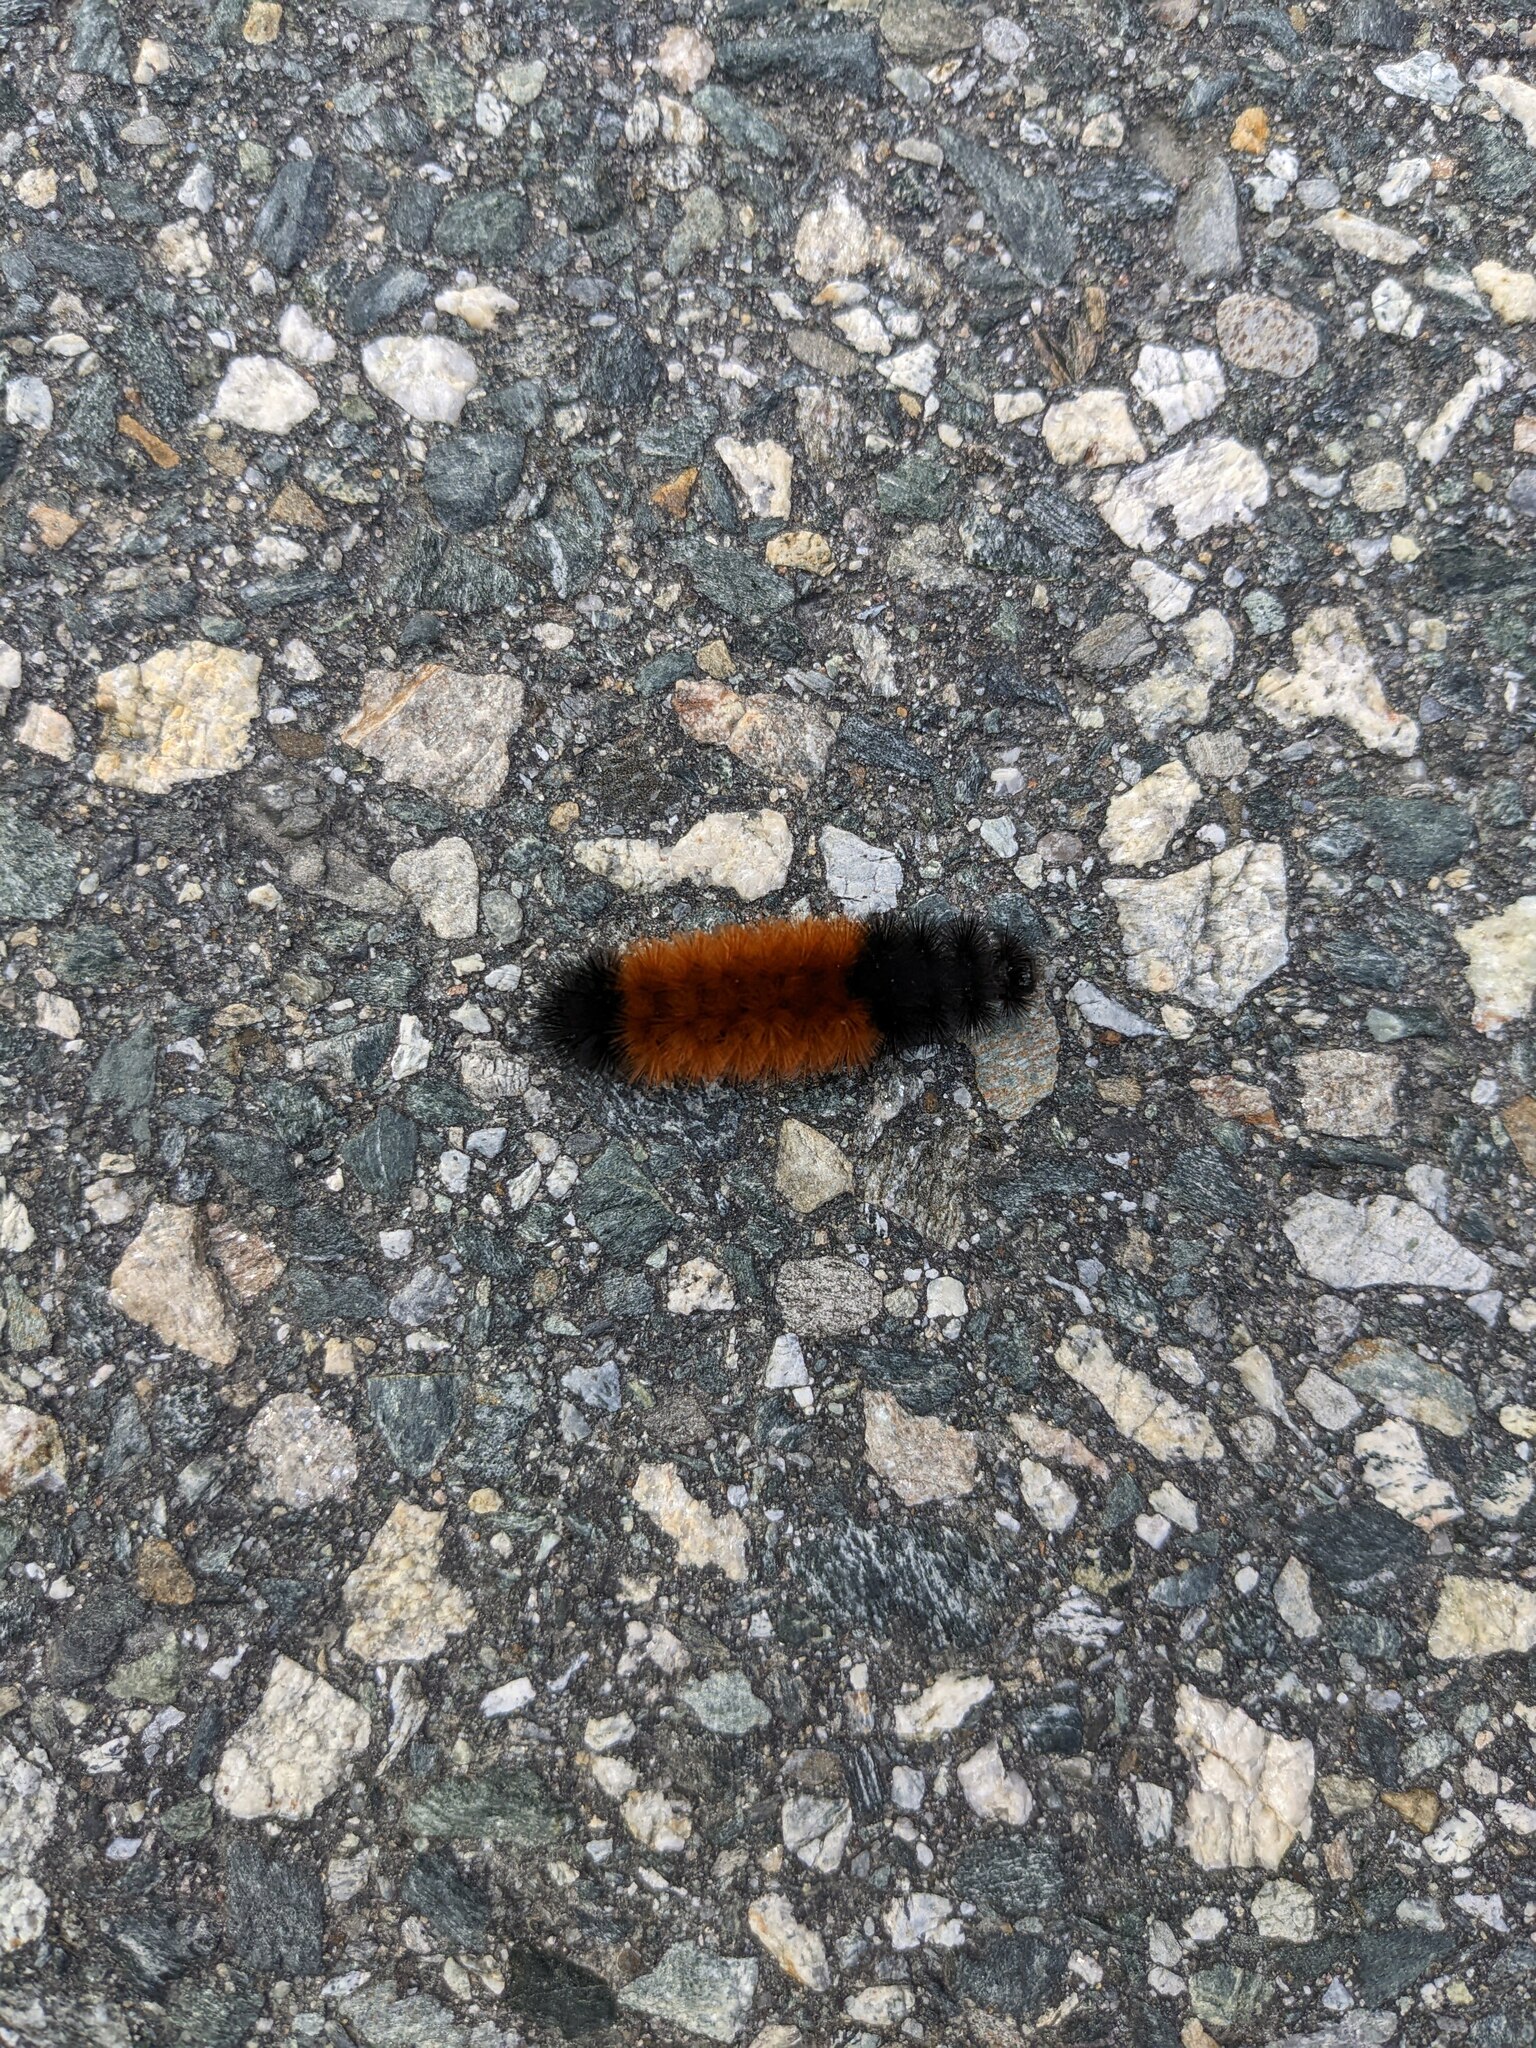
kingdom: Animalia
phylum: Arthropoda
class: Insecta
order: Lepidoptera
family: Erebidae
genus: Pyrrharctia
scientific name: Pyrrharctia isabella
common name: Isabella tiger moth
